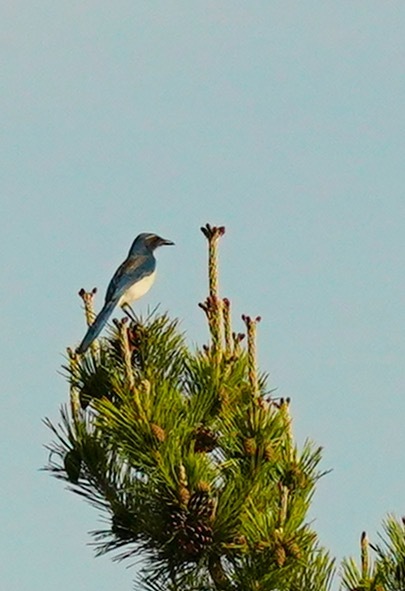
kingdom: Animalia
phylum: Chordata
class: Aves
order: Passeriformes
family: Corvidae
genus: Aphelocoma
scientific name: Aphelocoma californica
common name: California scrub-jay
